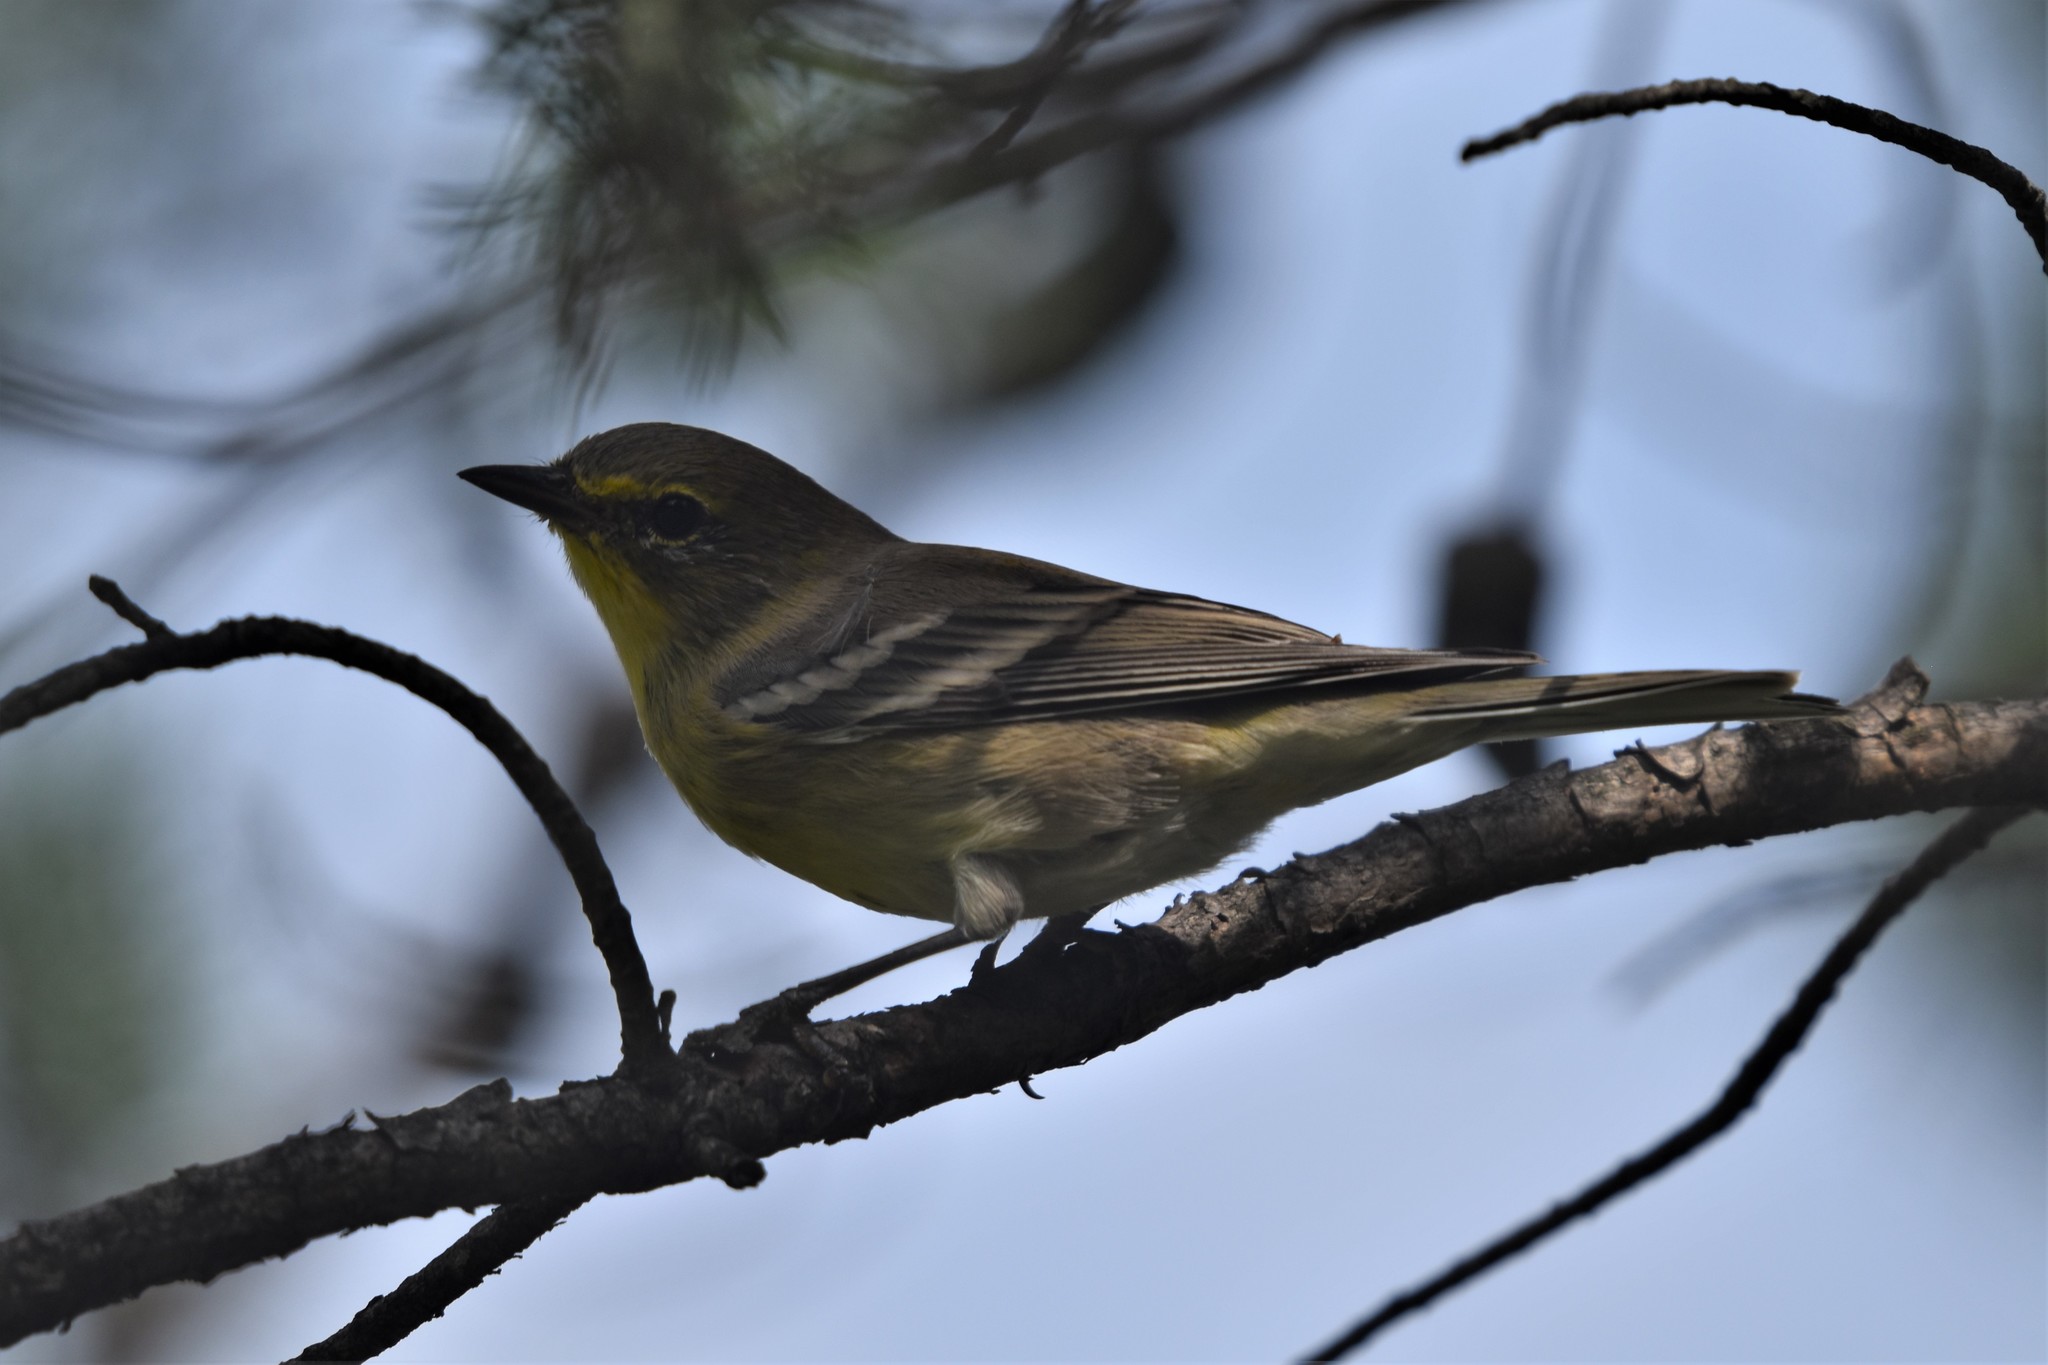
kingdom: Animalia
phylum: Chordata
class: Aves
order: Passeriformes
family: Parulidae
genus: Setophaga
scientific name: Setophaga pinus
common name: Pine warbler
